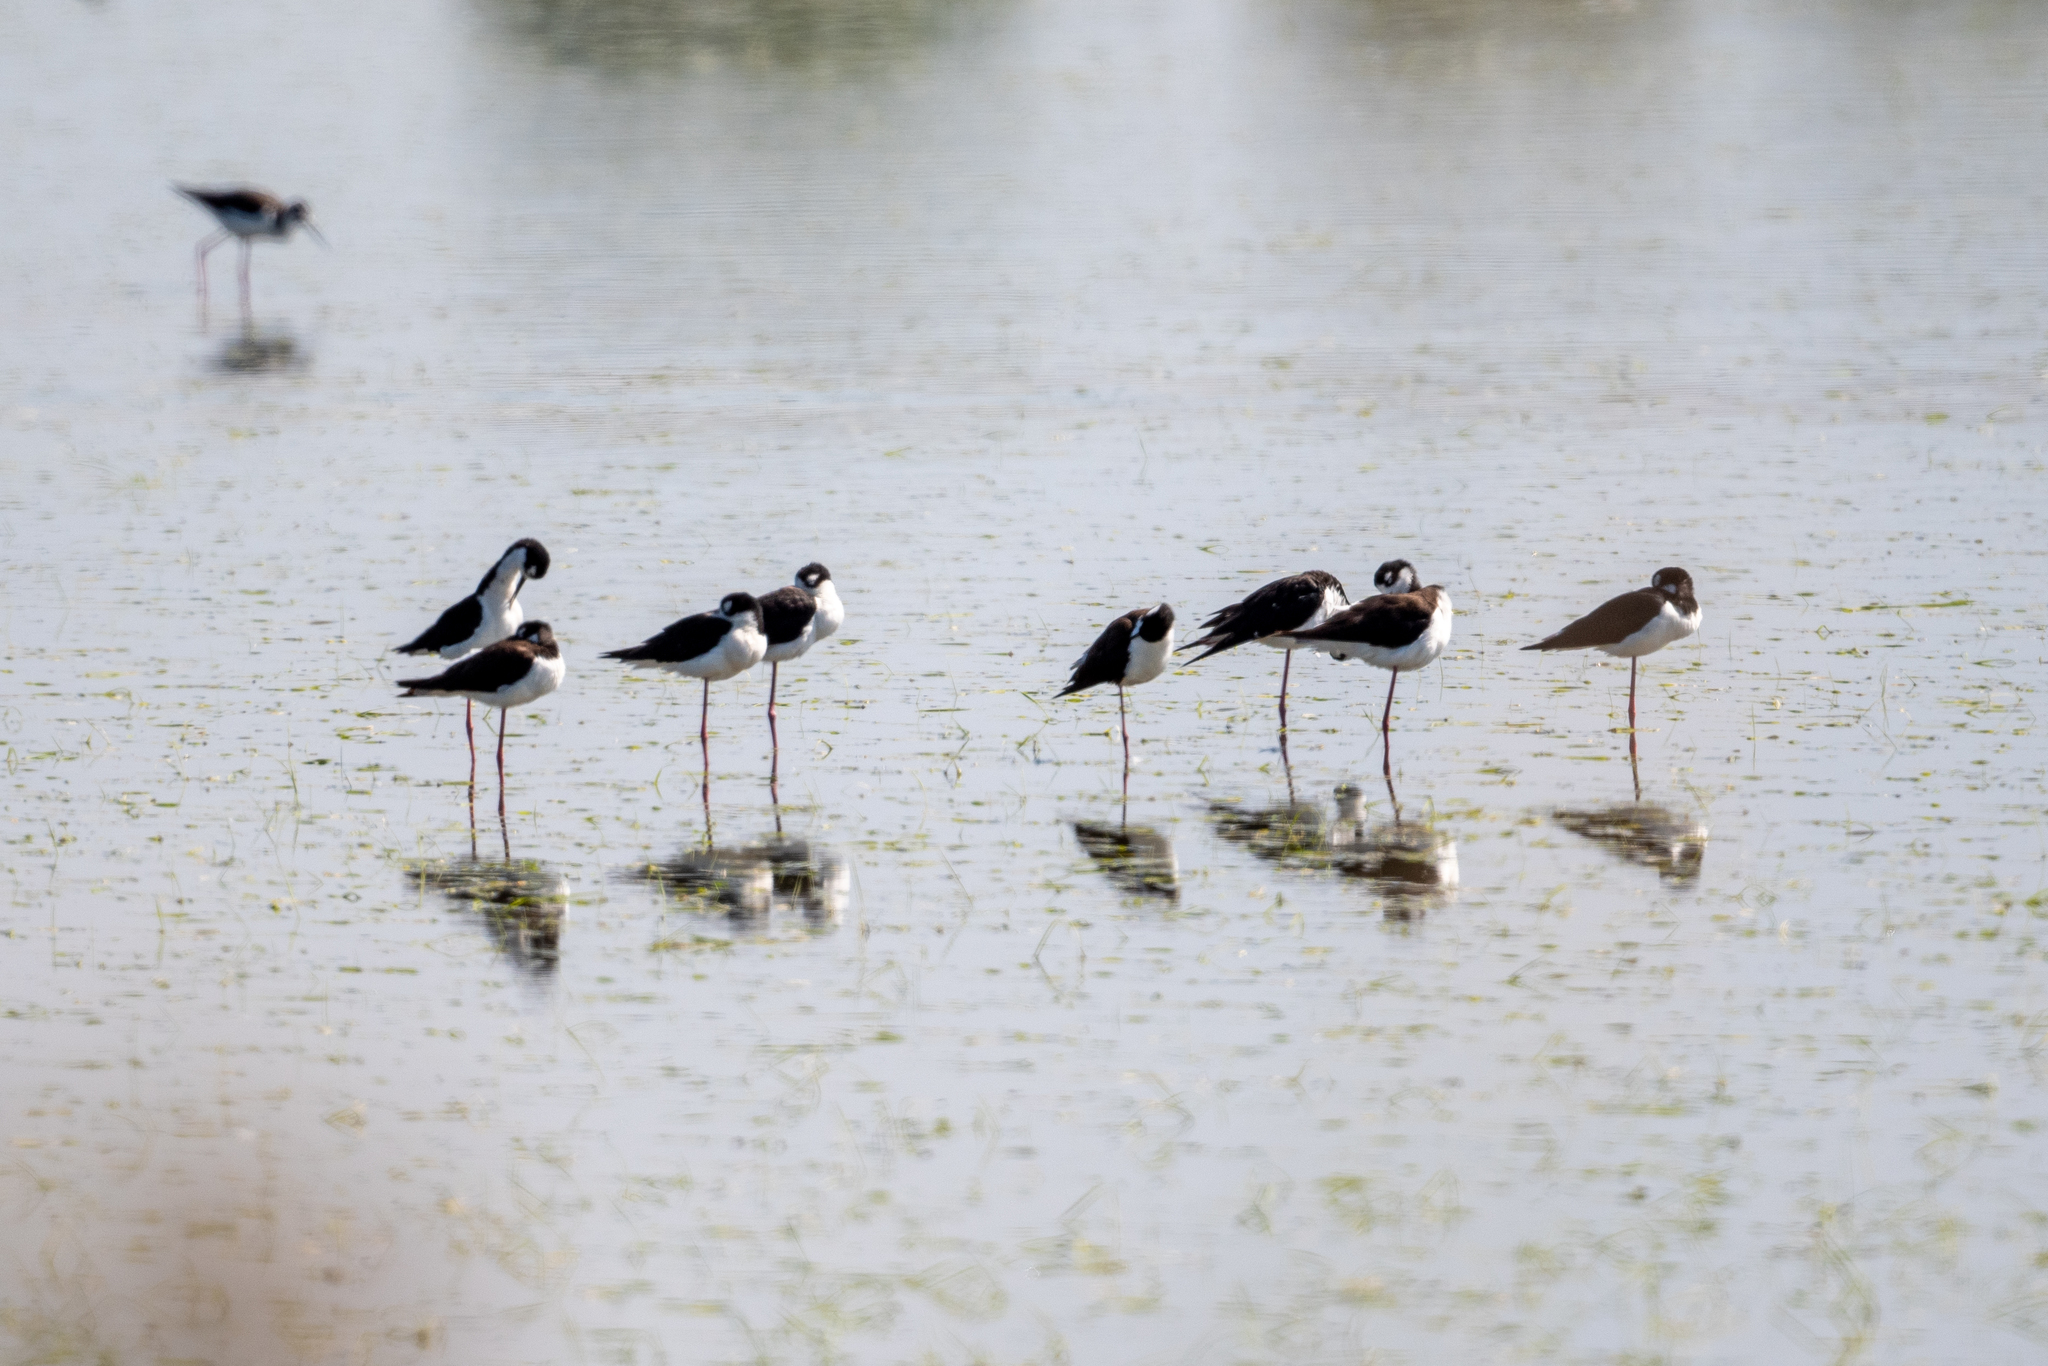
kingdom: Animalia
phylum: Chordata
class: Aves
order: Charadriiformes
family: Recurvirostridae
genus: Himantopus
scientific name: Himantopus mexicanus
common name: Black-necked stilt
